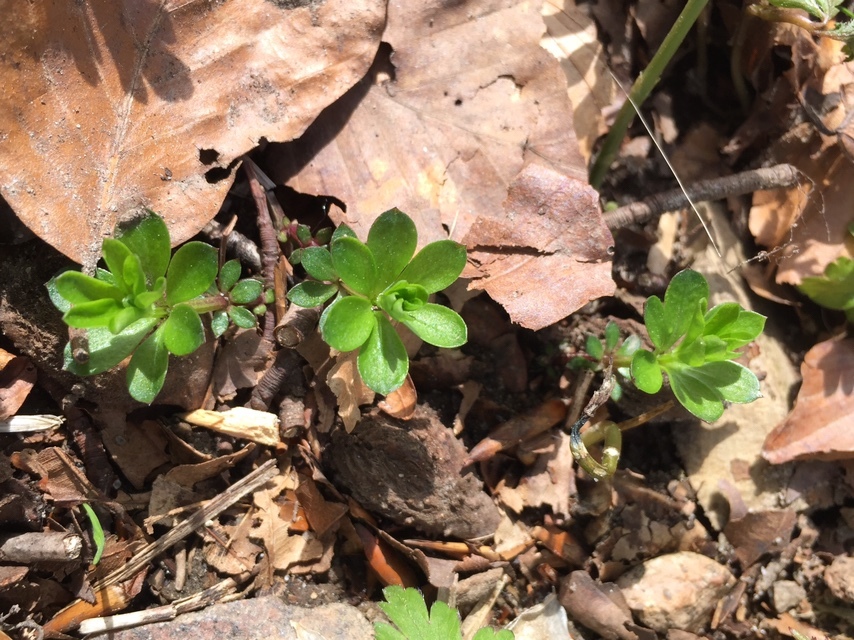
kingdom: Plantae
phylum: Tracheophyta
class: Magnoliopsida
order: Gentianales
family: Rubiaceae
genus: Galium
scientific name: Galium odoratum
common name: Sweet woodruff
